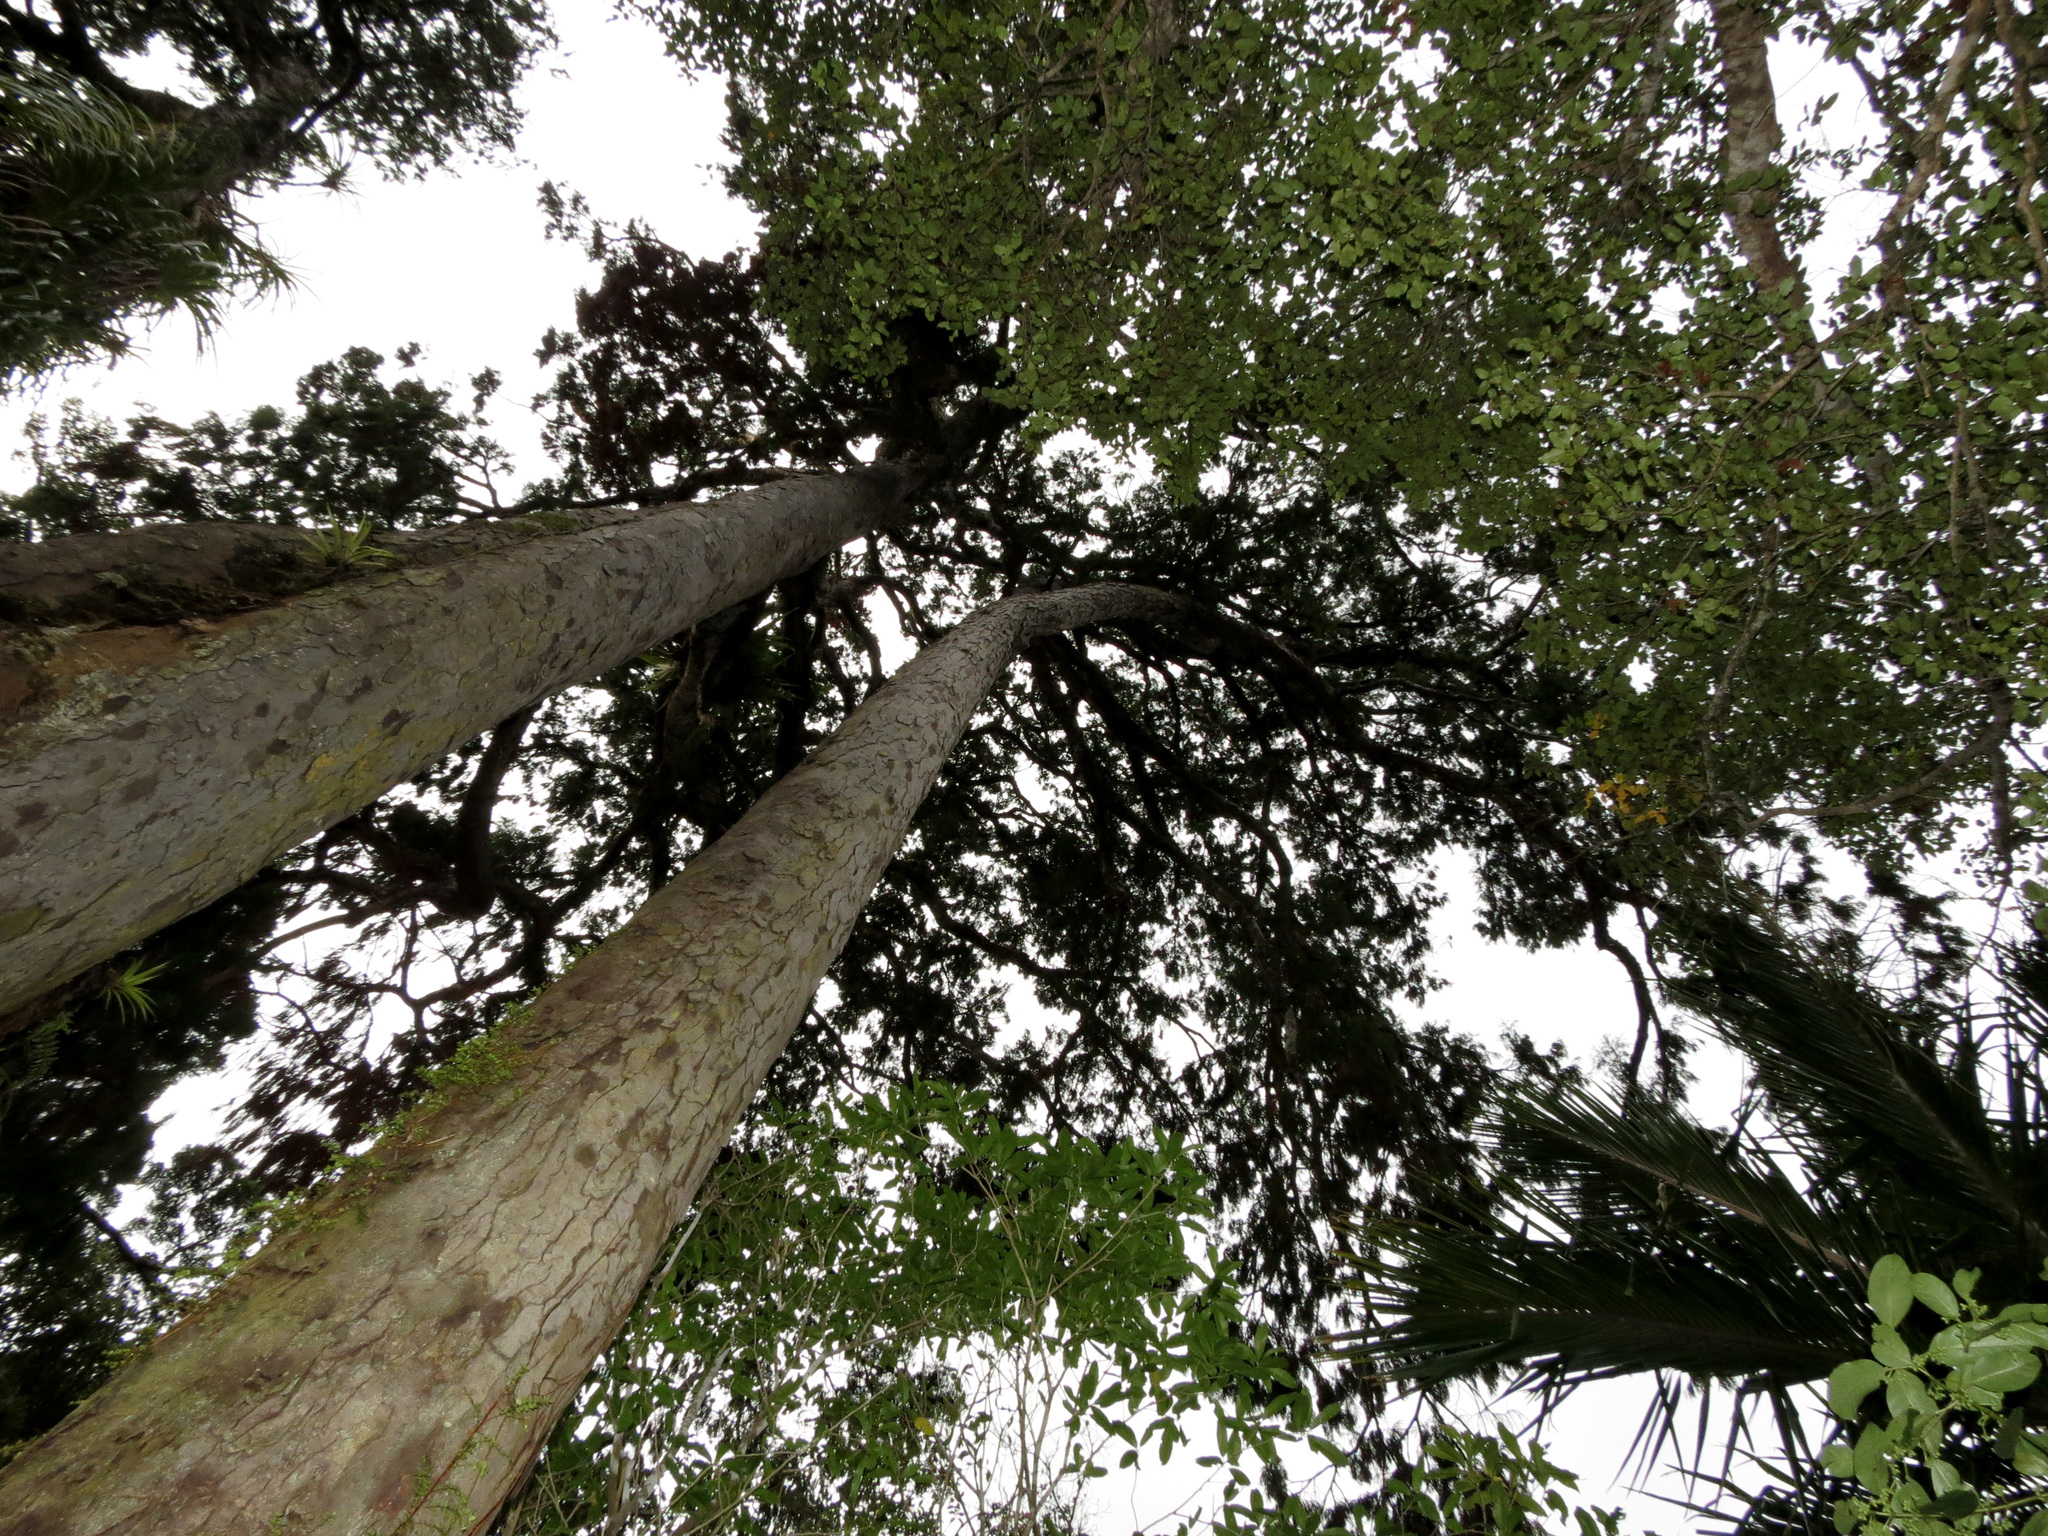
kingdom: Plantae
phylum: Tracheophyta
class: Pinopsida
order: Pinales
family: Podocarpaceae
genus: Dacrydium
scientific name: Dacrydium cupressinum
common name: Red pine
